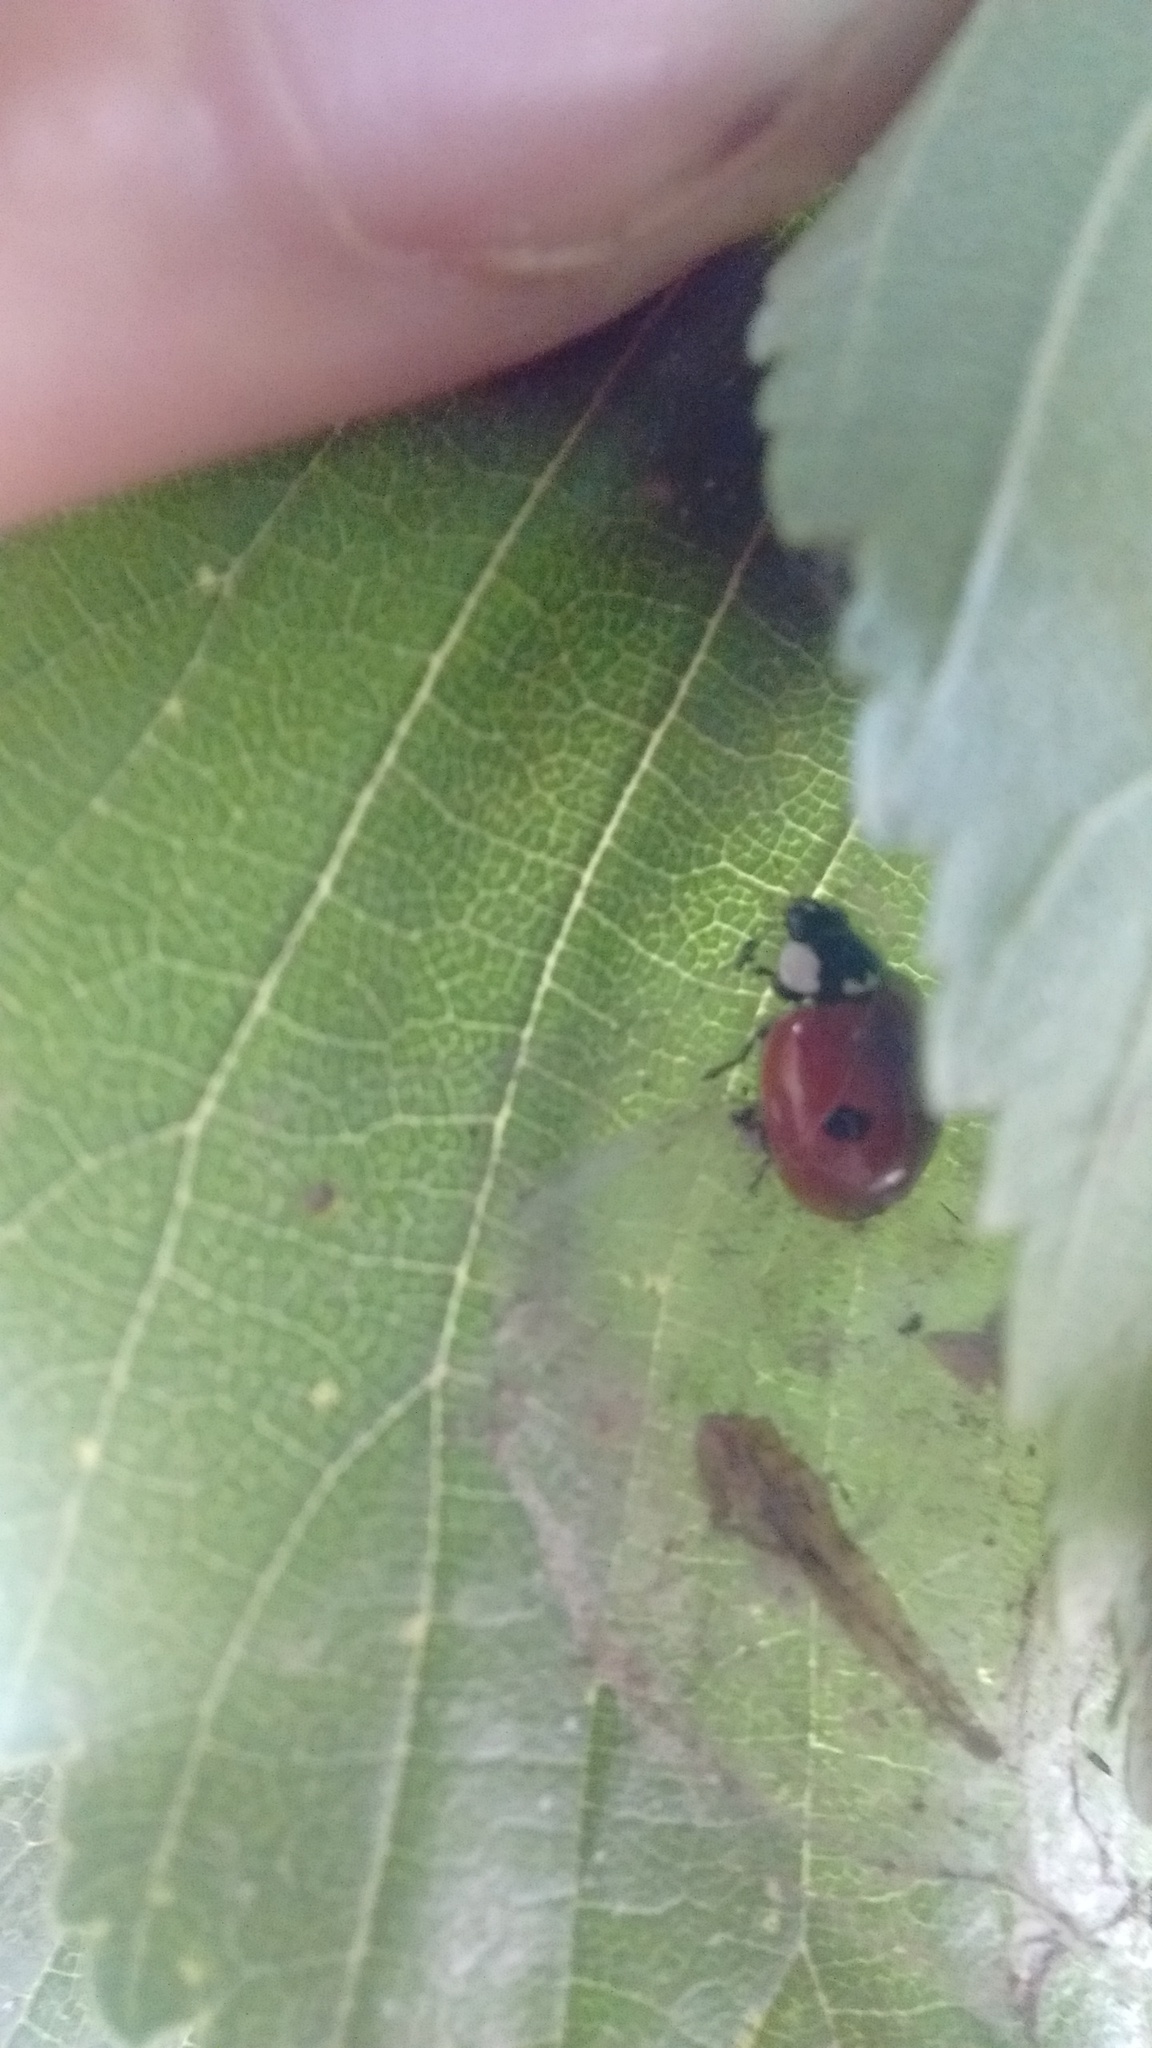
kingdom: Animalia
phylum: Arthropoda
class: Insecta
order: Coleoptera
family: Coccinellidae
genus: Adalia
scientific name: Adalia bipunctata
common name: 2-spot ladybird
